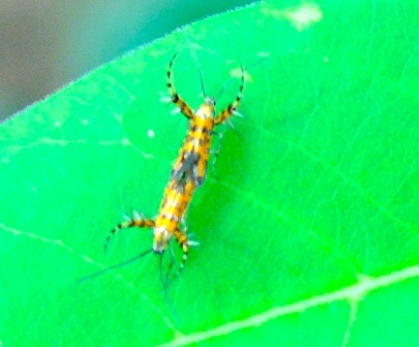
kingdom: Animalia
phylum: Arthropoda
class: Insecta
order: Lepidoptera
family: Heliodinidae
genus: Heliodines
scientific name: Heliodines
